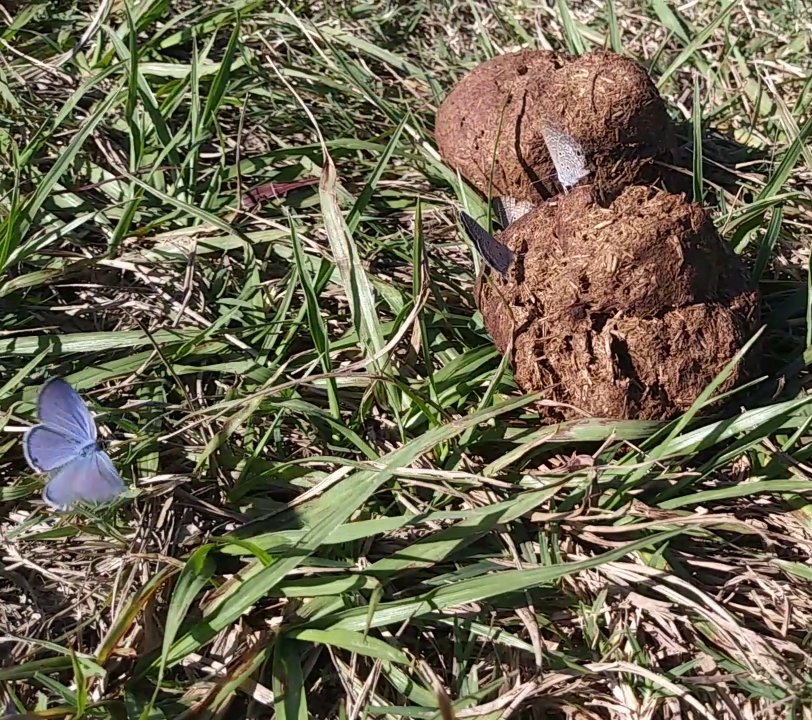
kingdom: Animalia
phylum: Arthropoda
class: Insecta
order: Lepidoptera
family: Lycaenidae
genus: Hemiargus
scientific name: Hemiargus ceraunus
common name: Ceraunus blue
